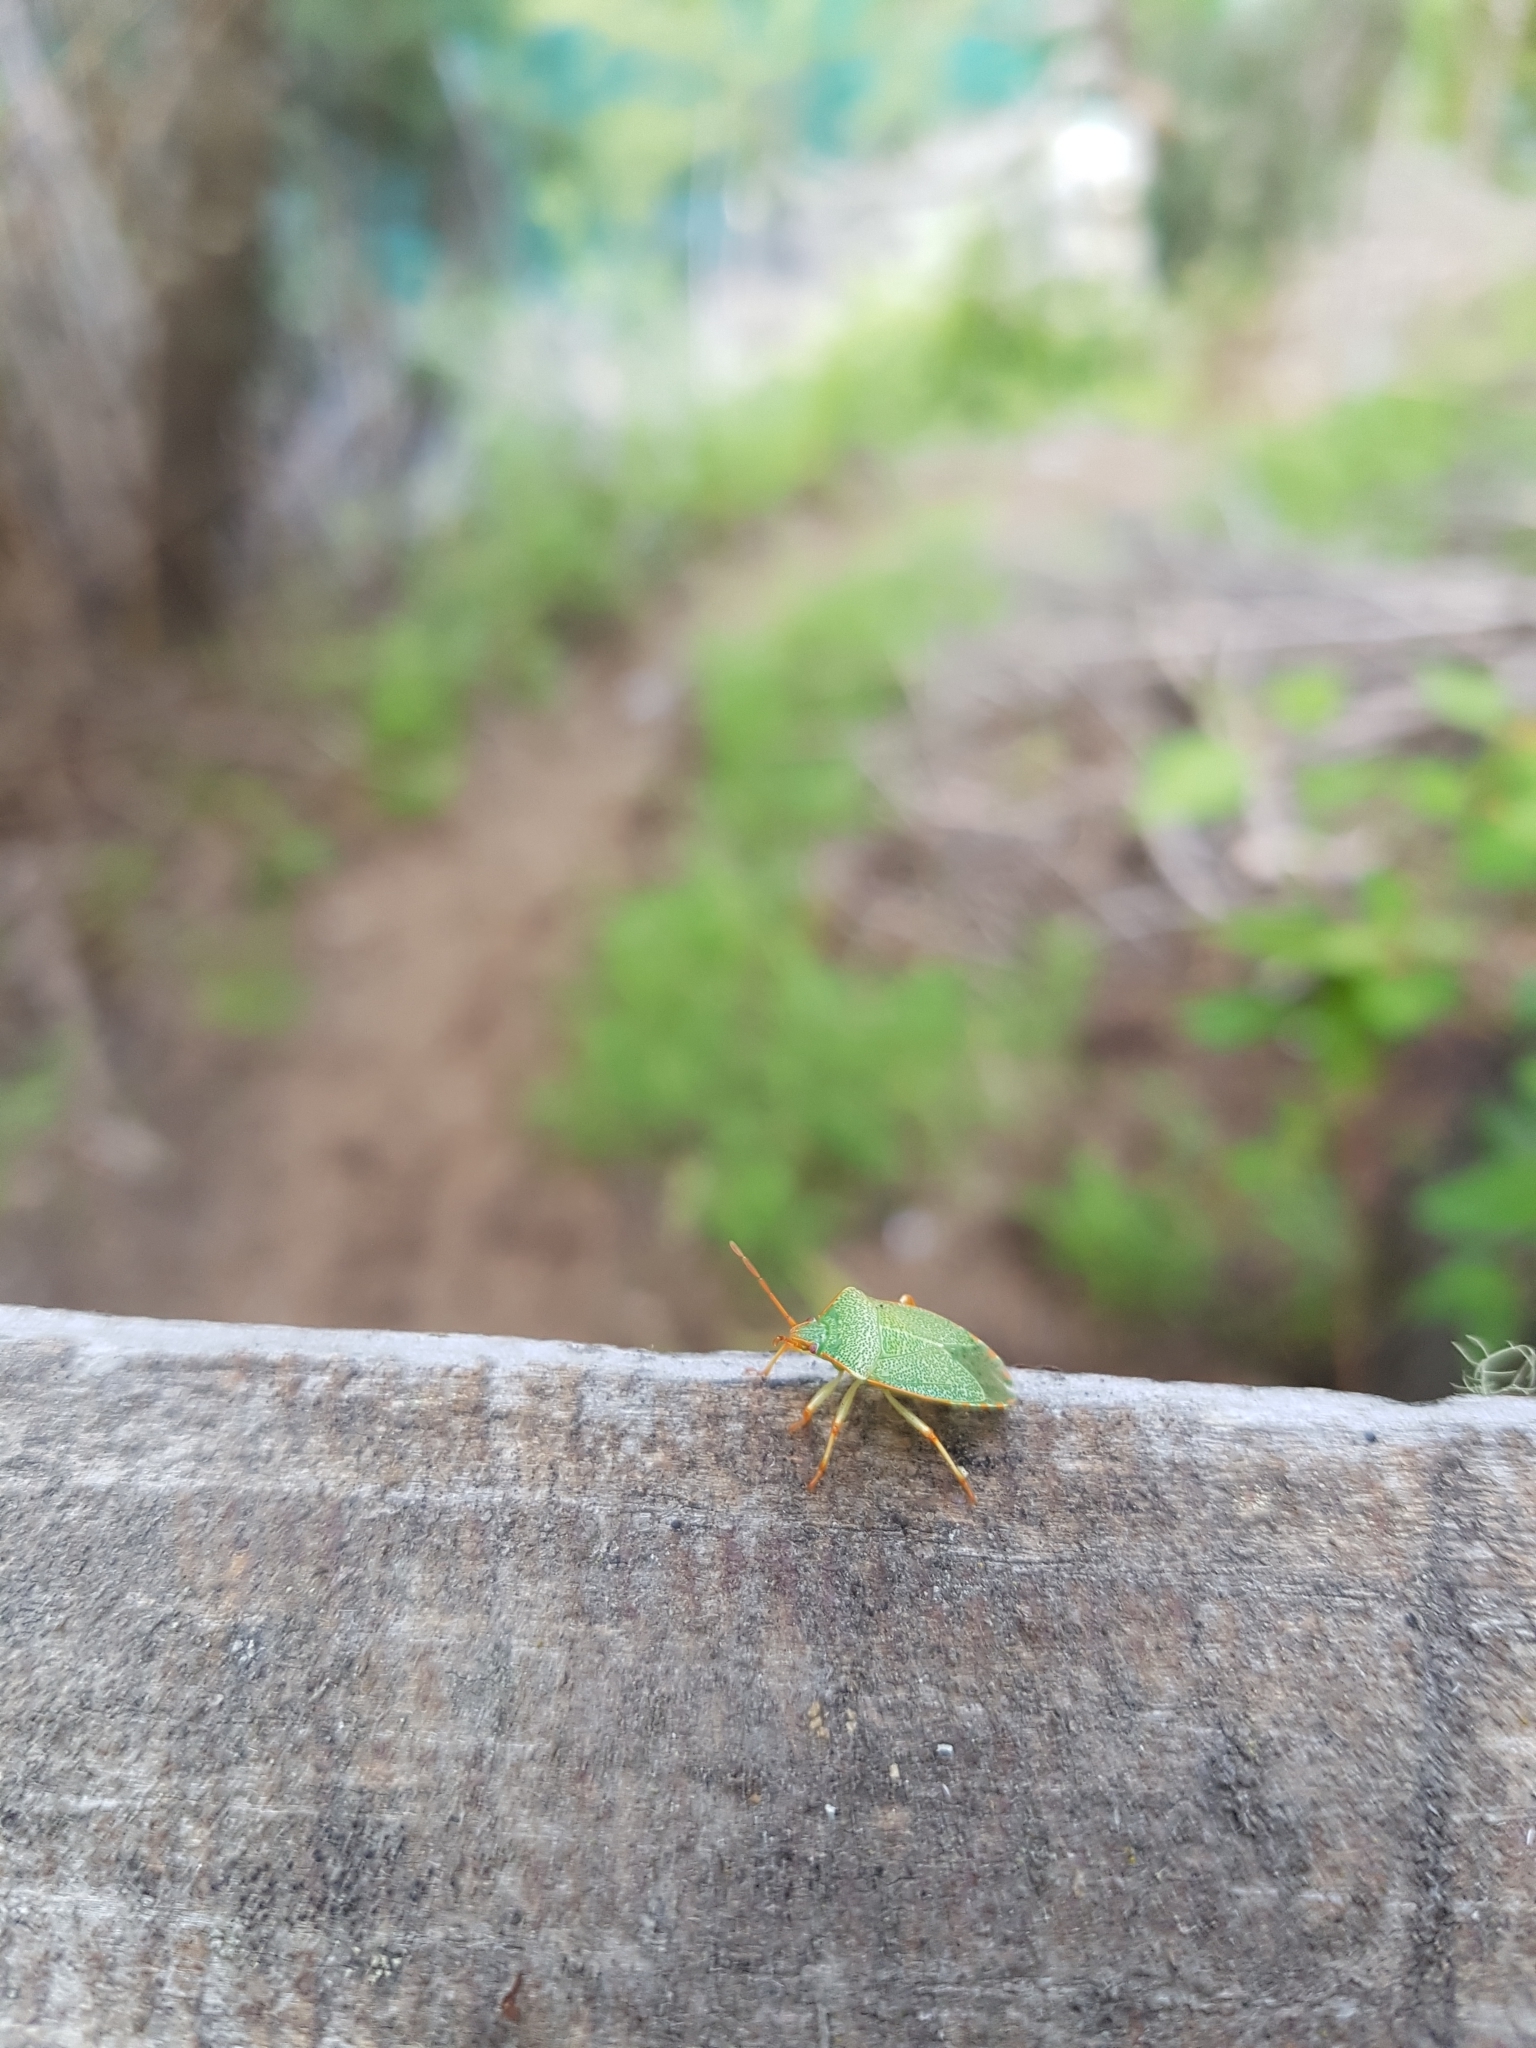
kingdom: Animalia
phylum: Arthropoda
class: Insecta
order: Hemiptera
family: Acanthosomatidae
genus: Sinopla
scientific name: Sinopla perpunctatus
